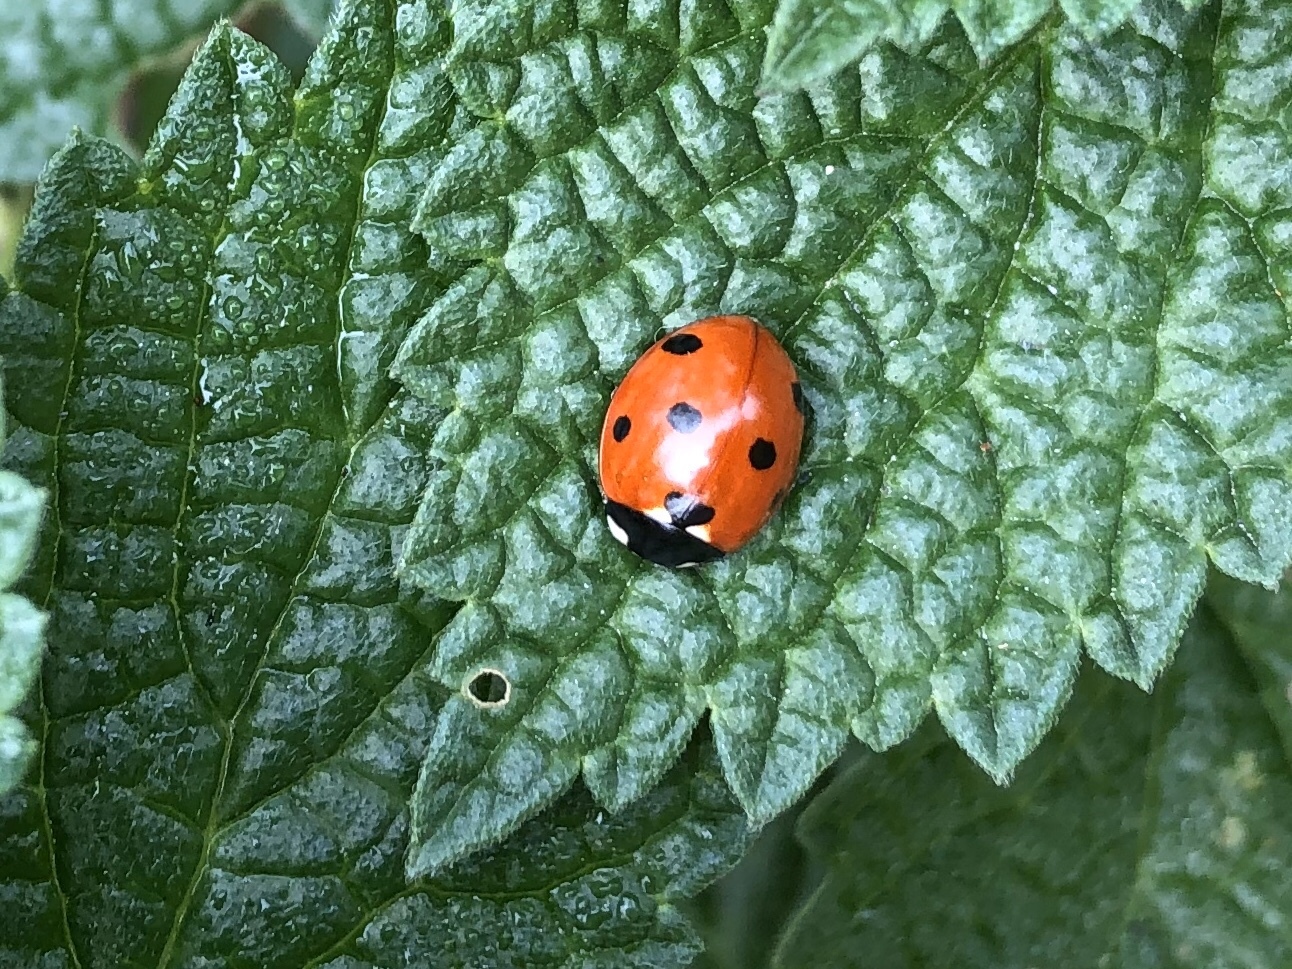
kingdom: Animalia
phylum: Arthropoda
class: Insecta
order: Coleoptera
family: Coccinellidae
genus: Coccinella
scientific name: Coccinella septempunctata
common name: Sevenspotted lady beetle
